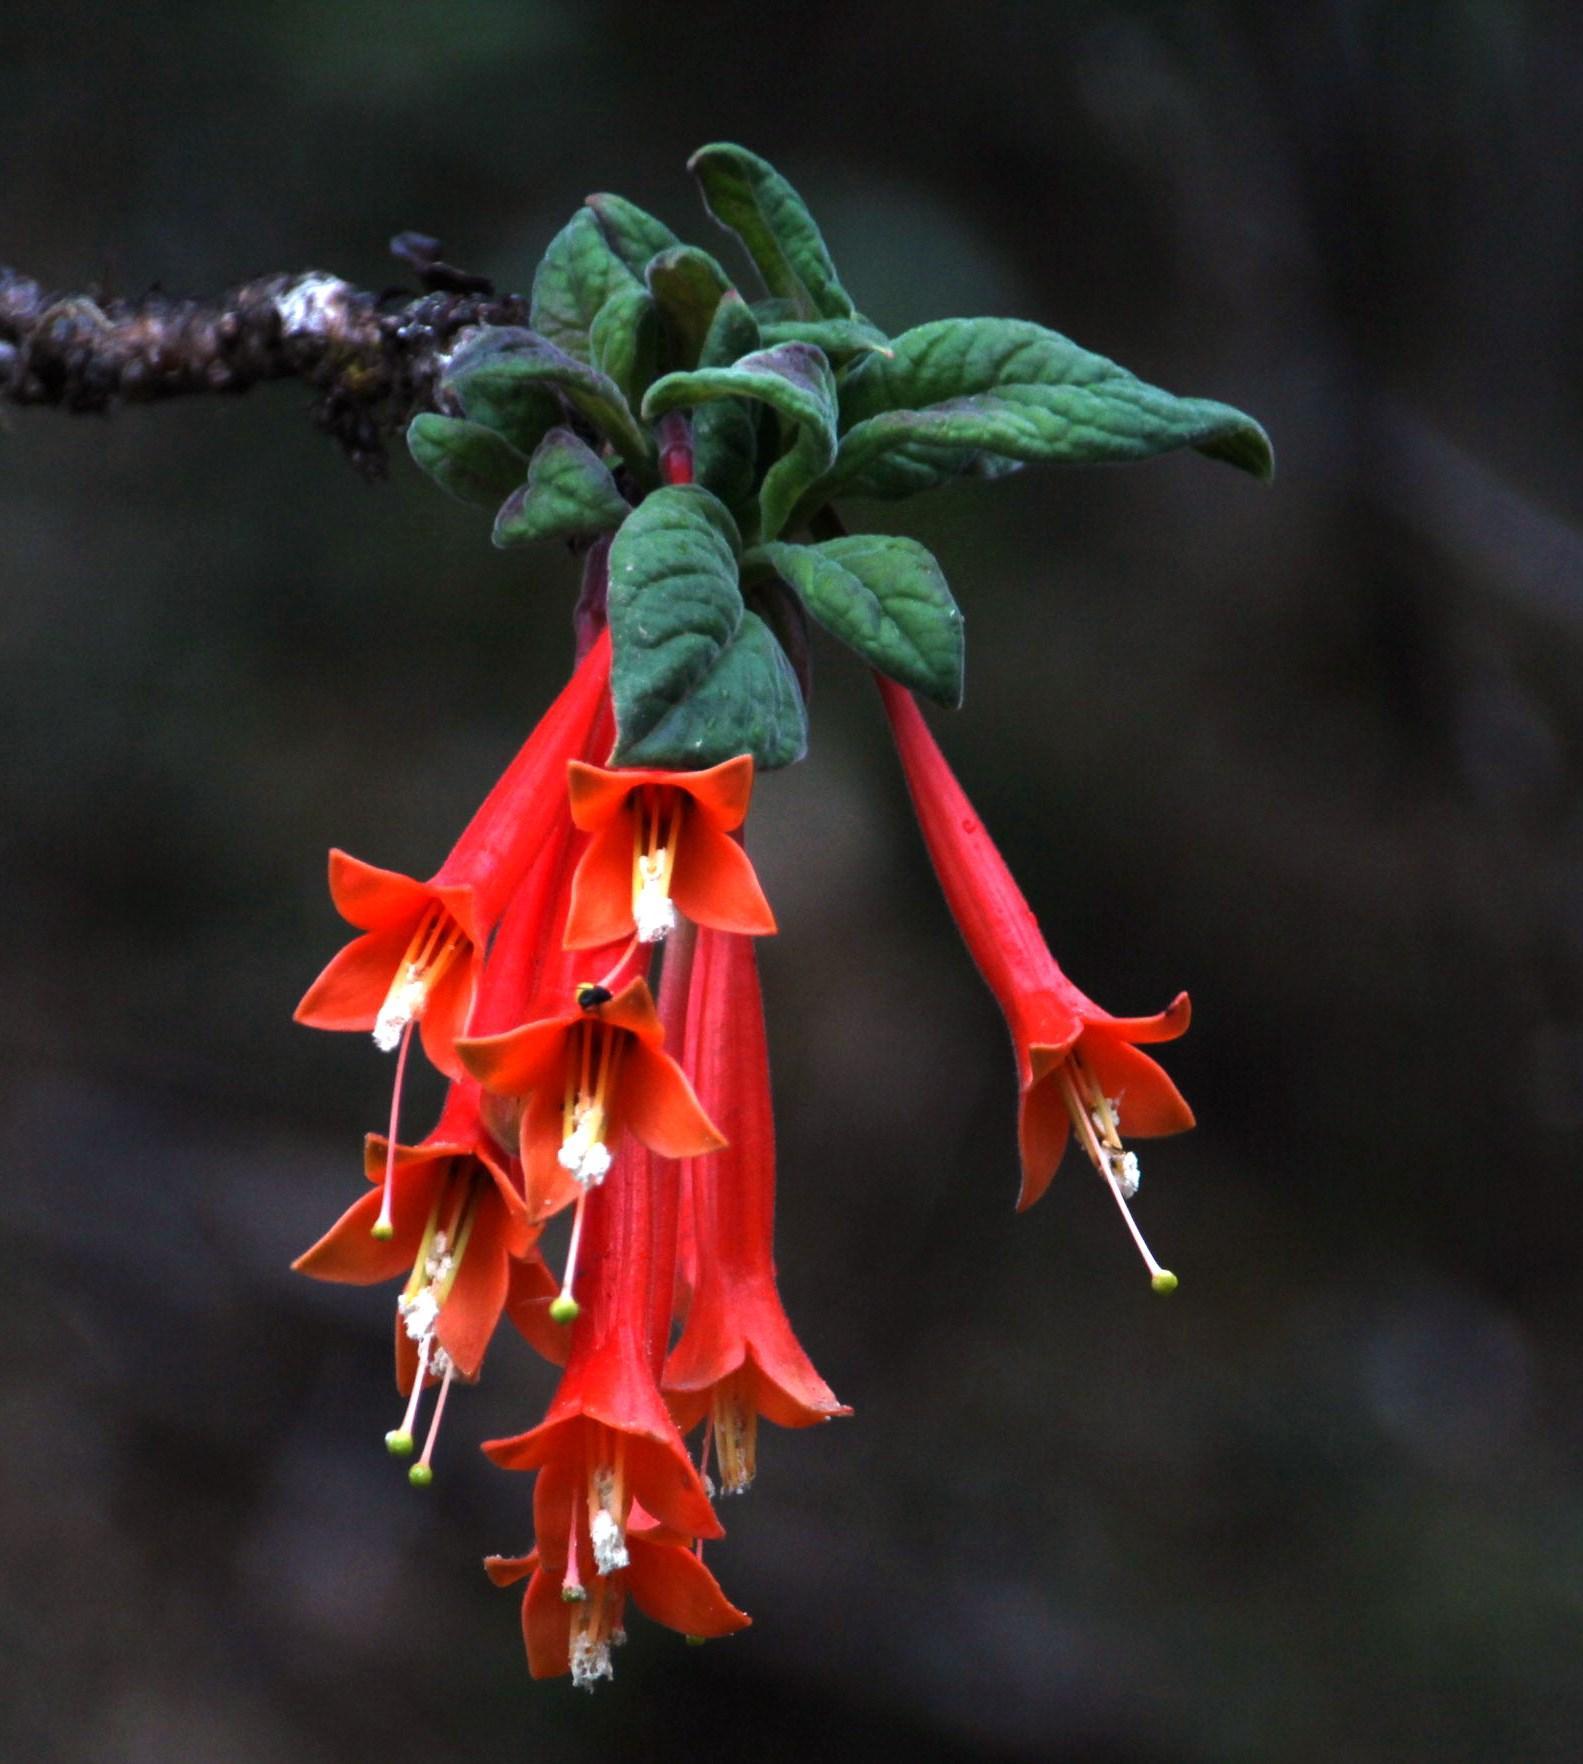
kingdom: Plantae
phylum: Tracheophyta
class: Magnoliopsida
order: Myrtales
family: Onagraceae
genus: Fuchsia
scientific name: Fuchsia apetala
